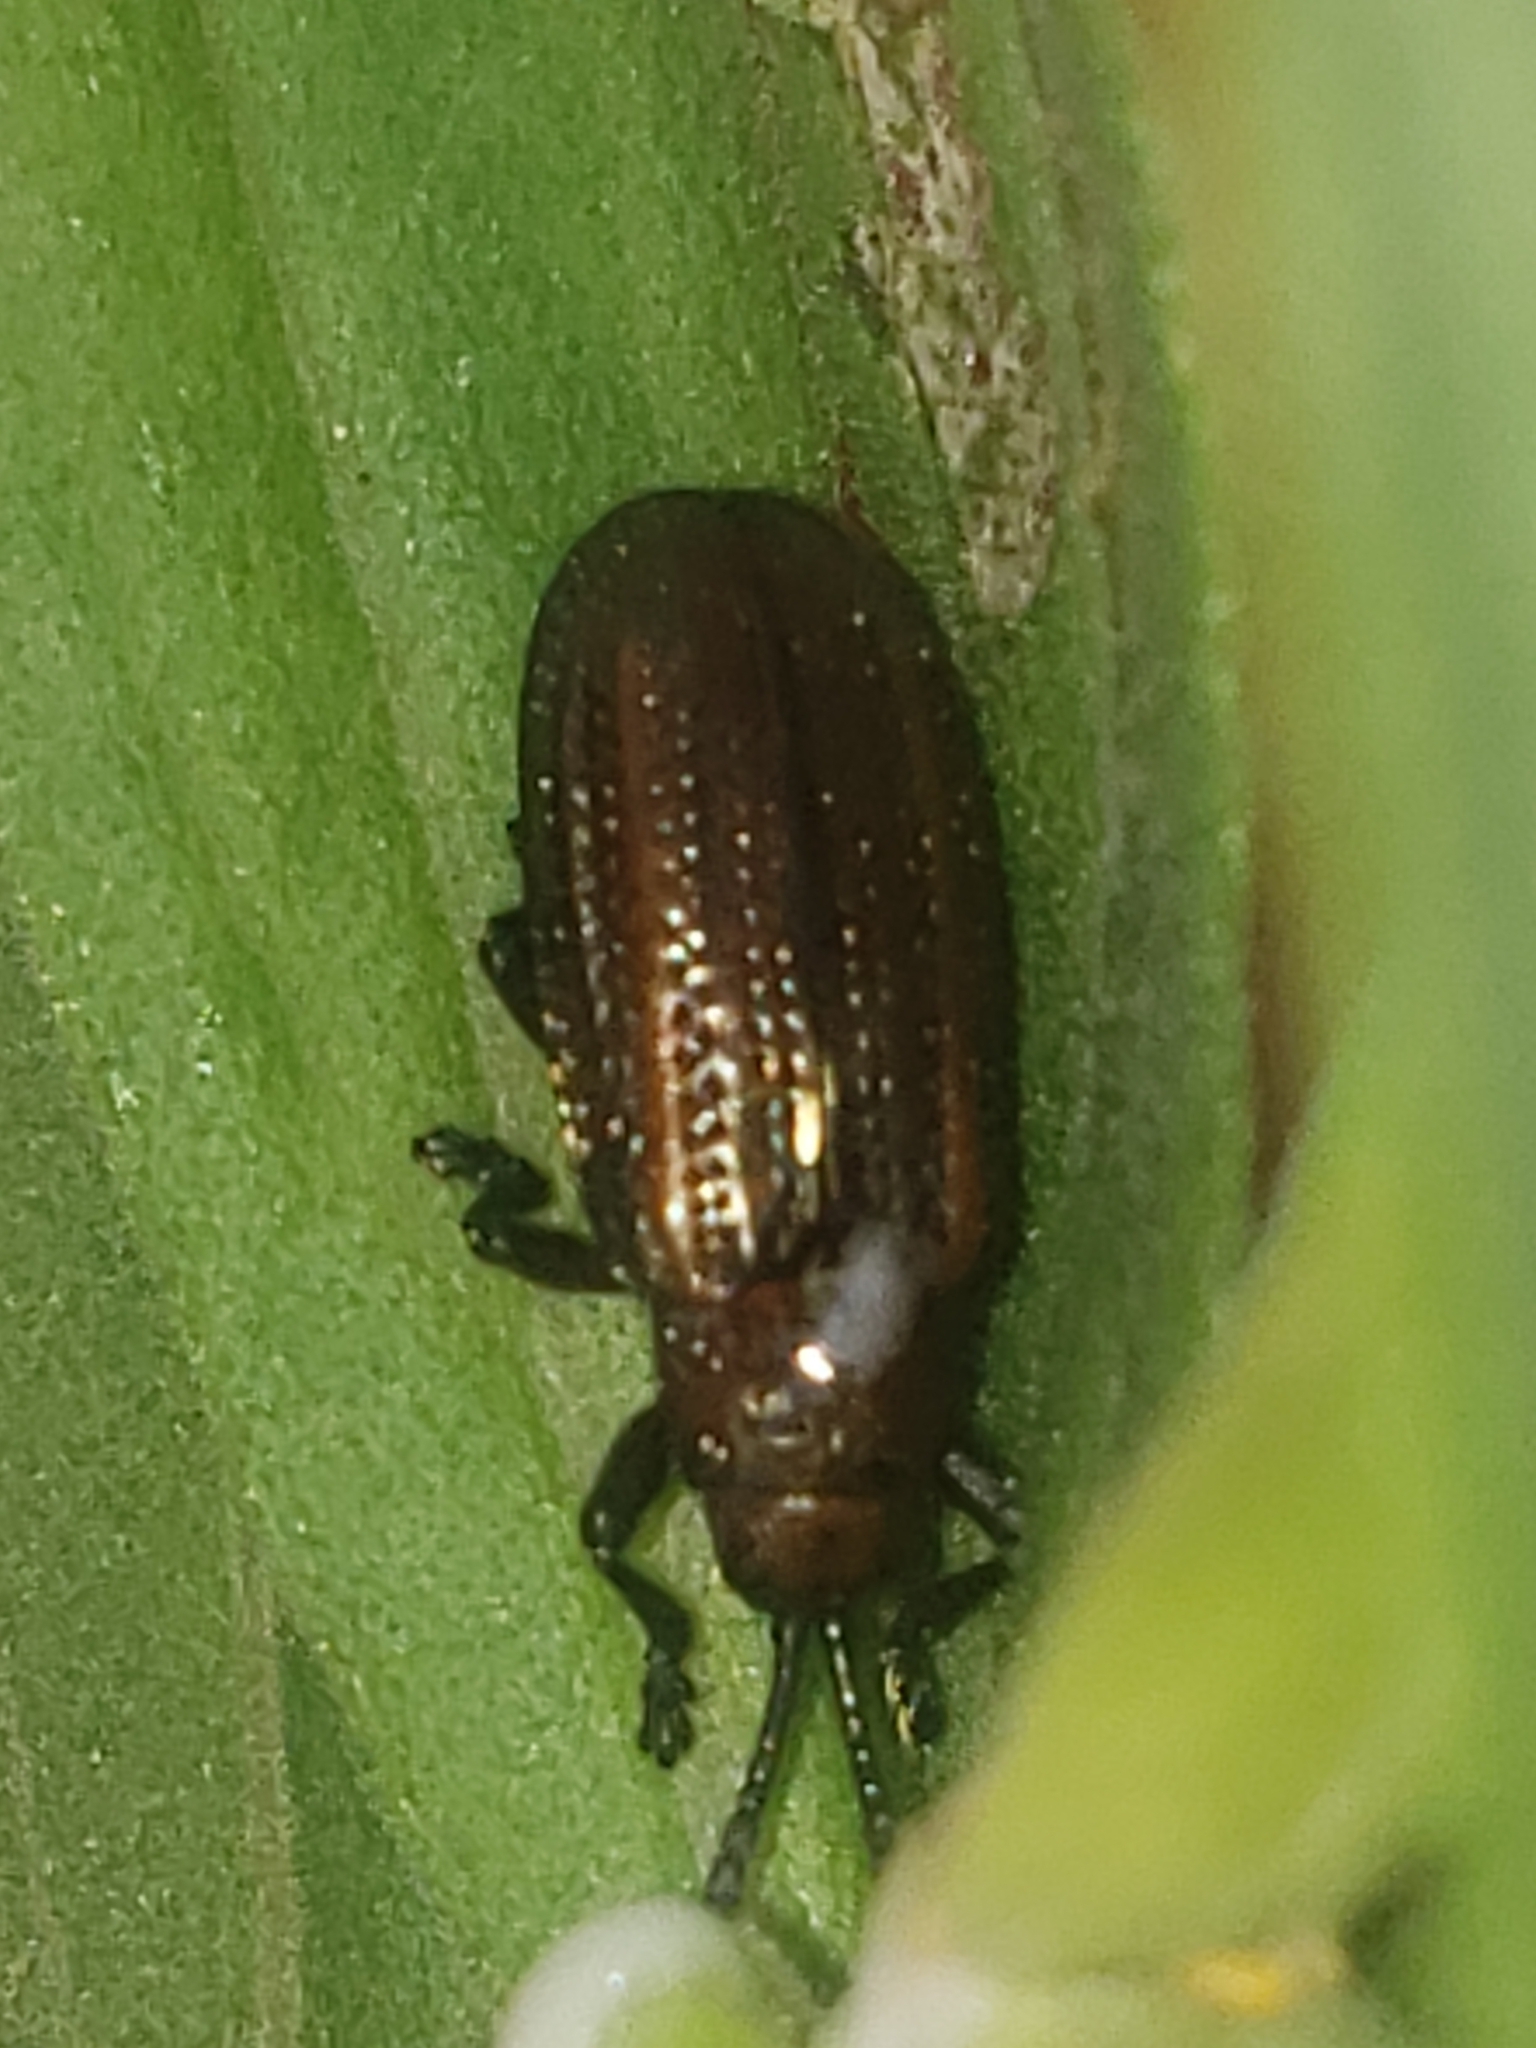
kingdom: Animalia
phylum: Arthropoda
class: Insecta
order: Coleoptera
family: Chrysomelidae
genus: Microrhopala
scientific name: Microrhopala vittata
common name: Goldenrod leaf miner beetle
